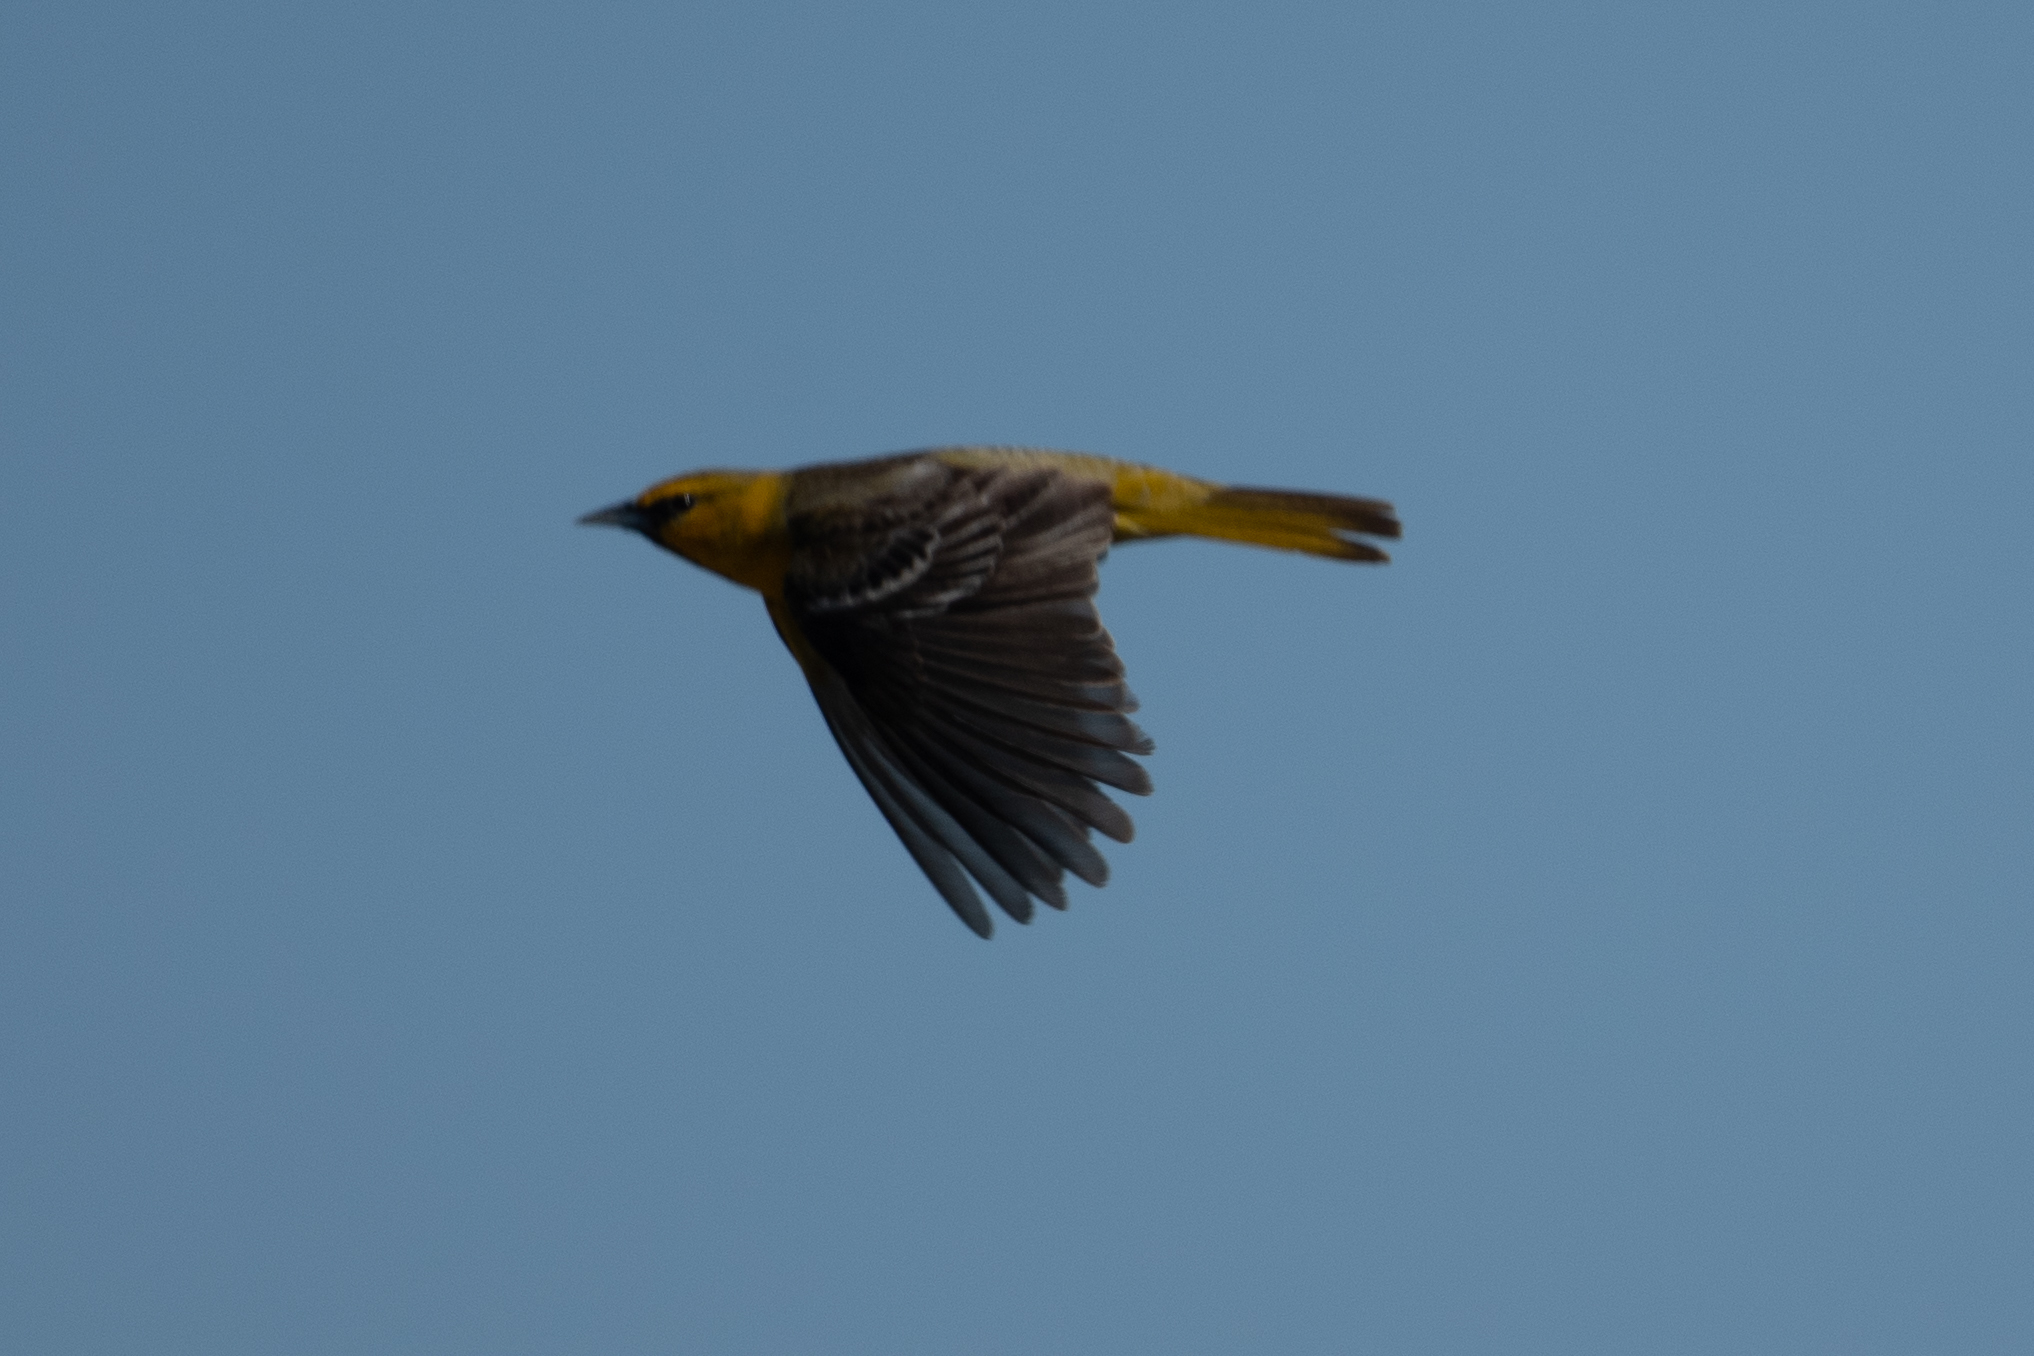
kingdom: Animalia
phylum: Chordata
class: Aves
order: Passeriformes
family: Icteridae
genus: Icterus
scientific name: Icterus bullockii
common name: Bullock's oriole
